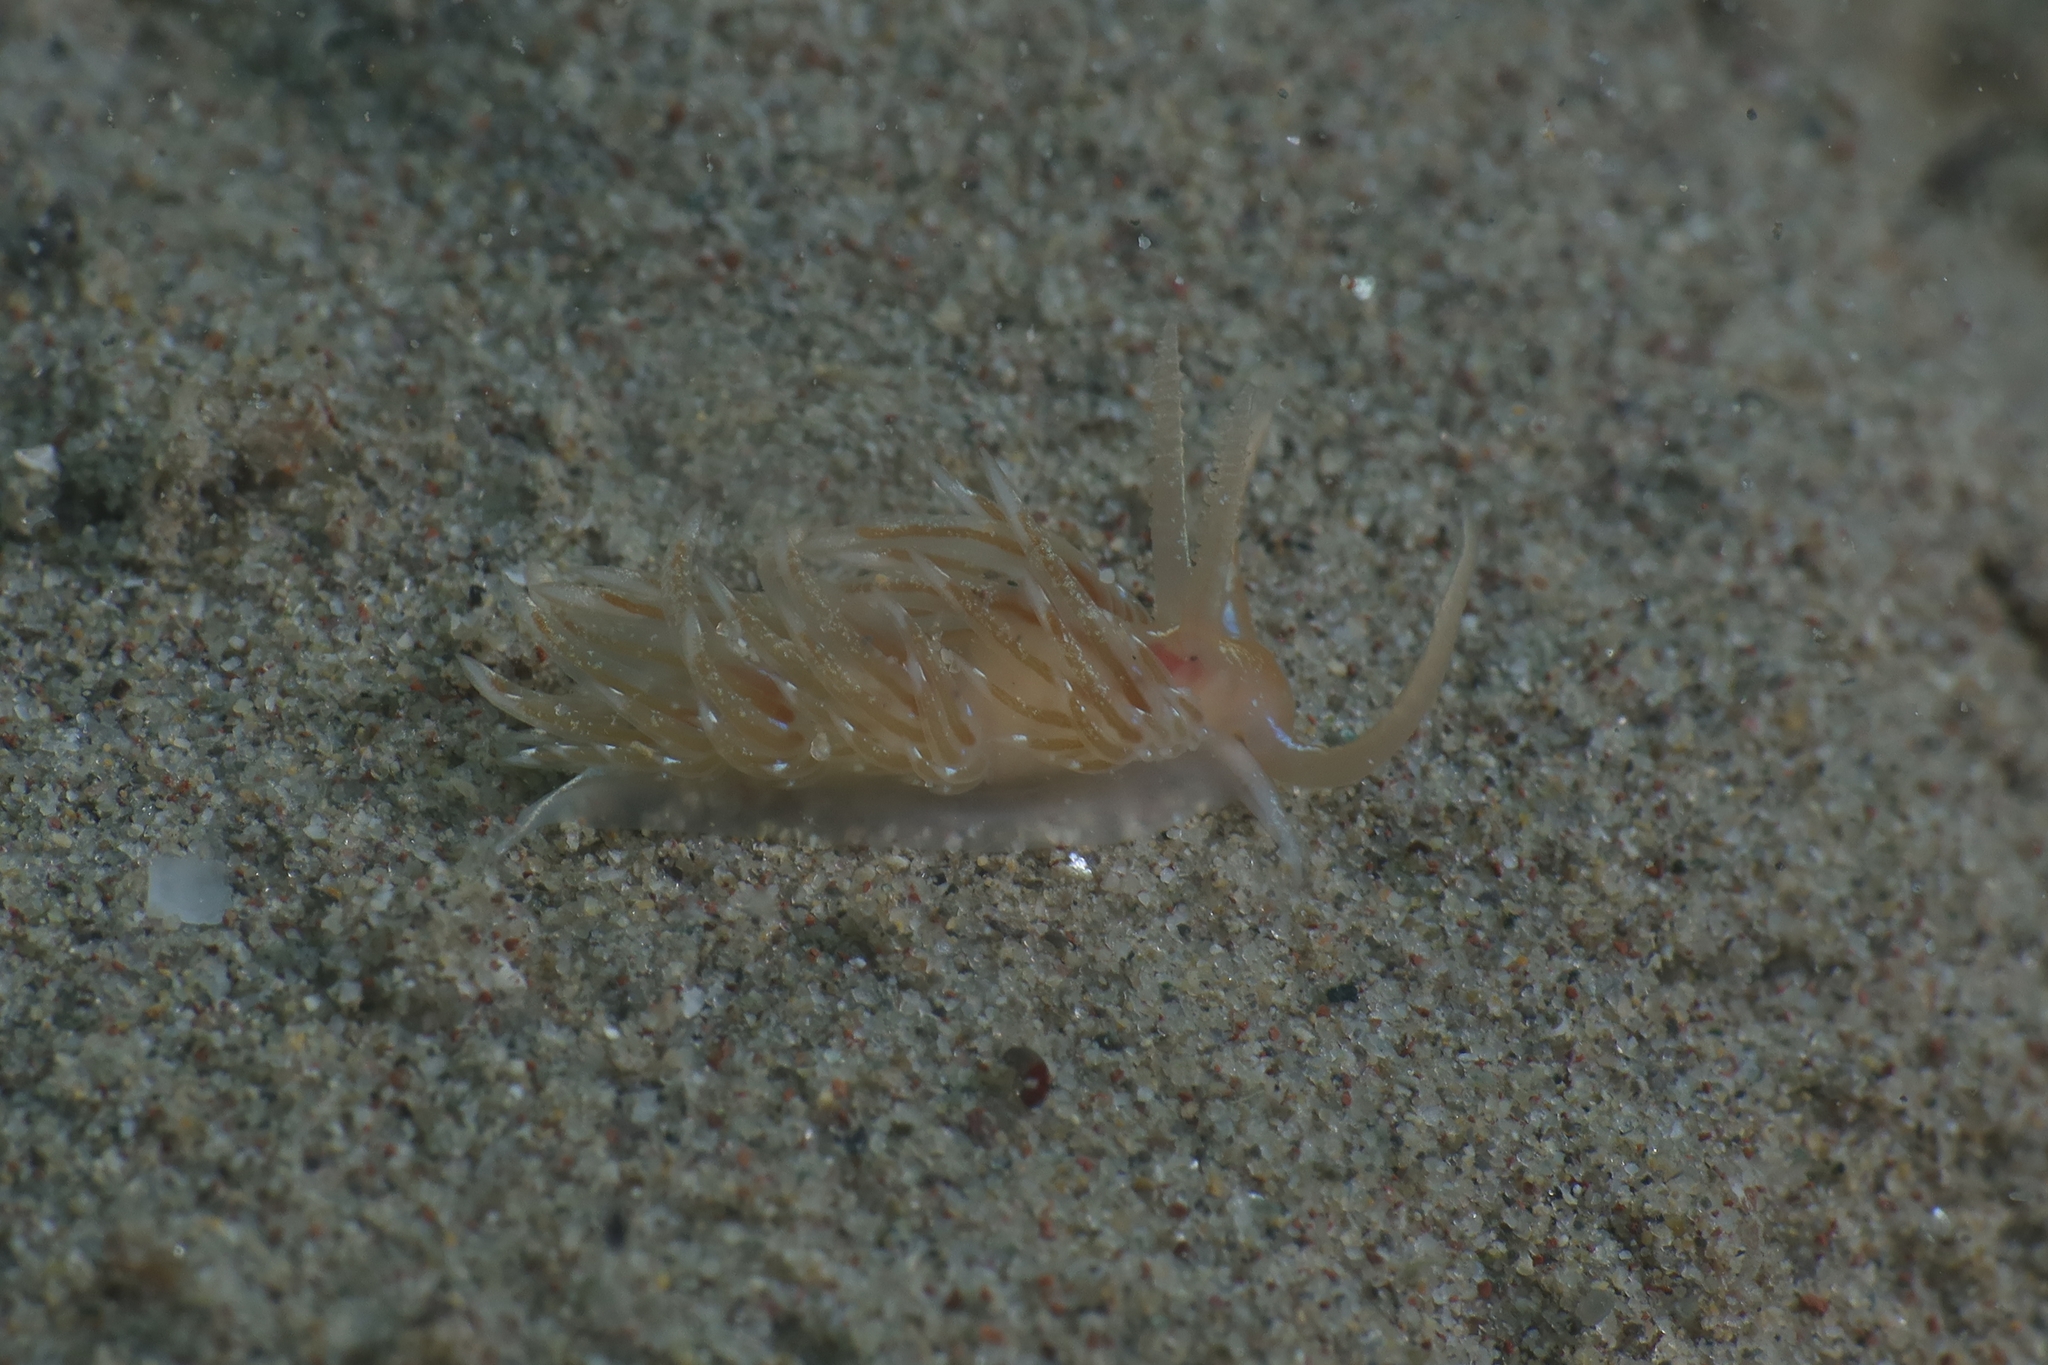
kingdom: Animalia
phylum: Mollusca
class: Gastropoda
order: Nudibranchia
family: Facelinidae
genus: Facelina
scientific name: Facelina vicina
